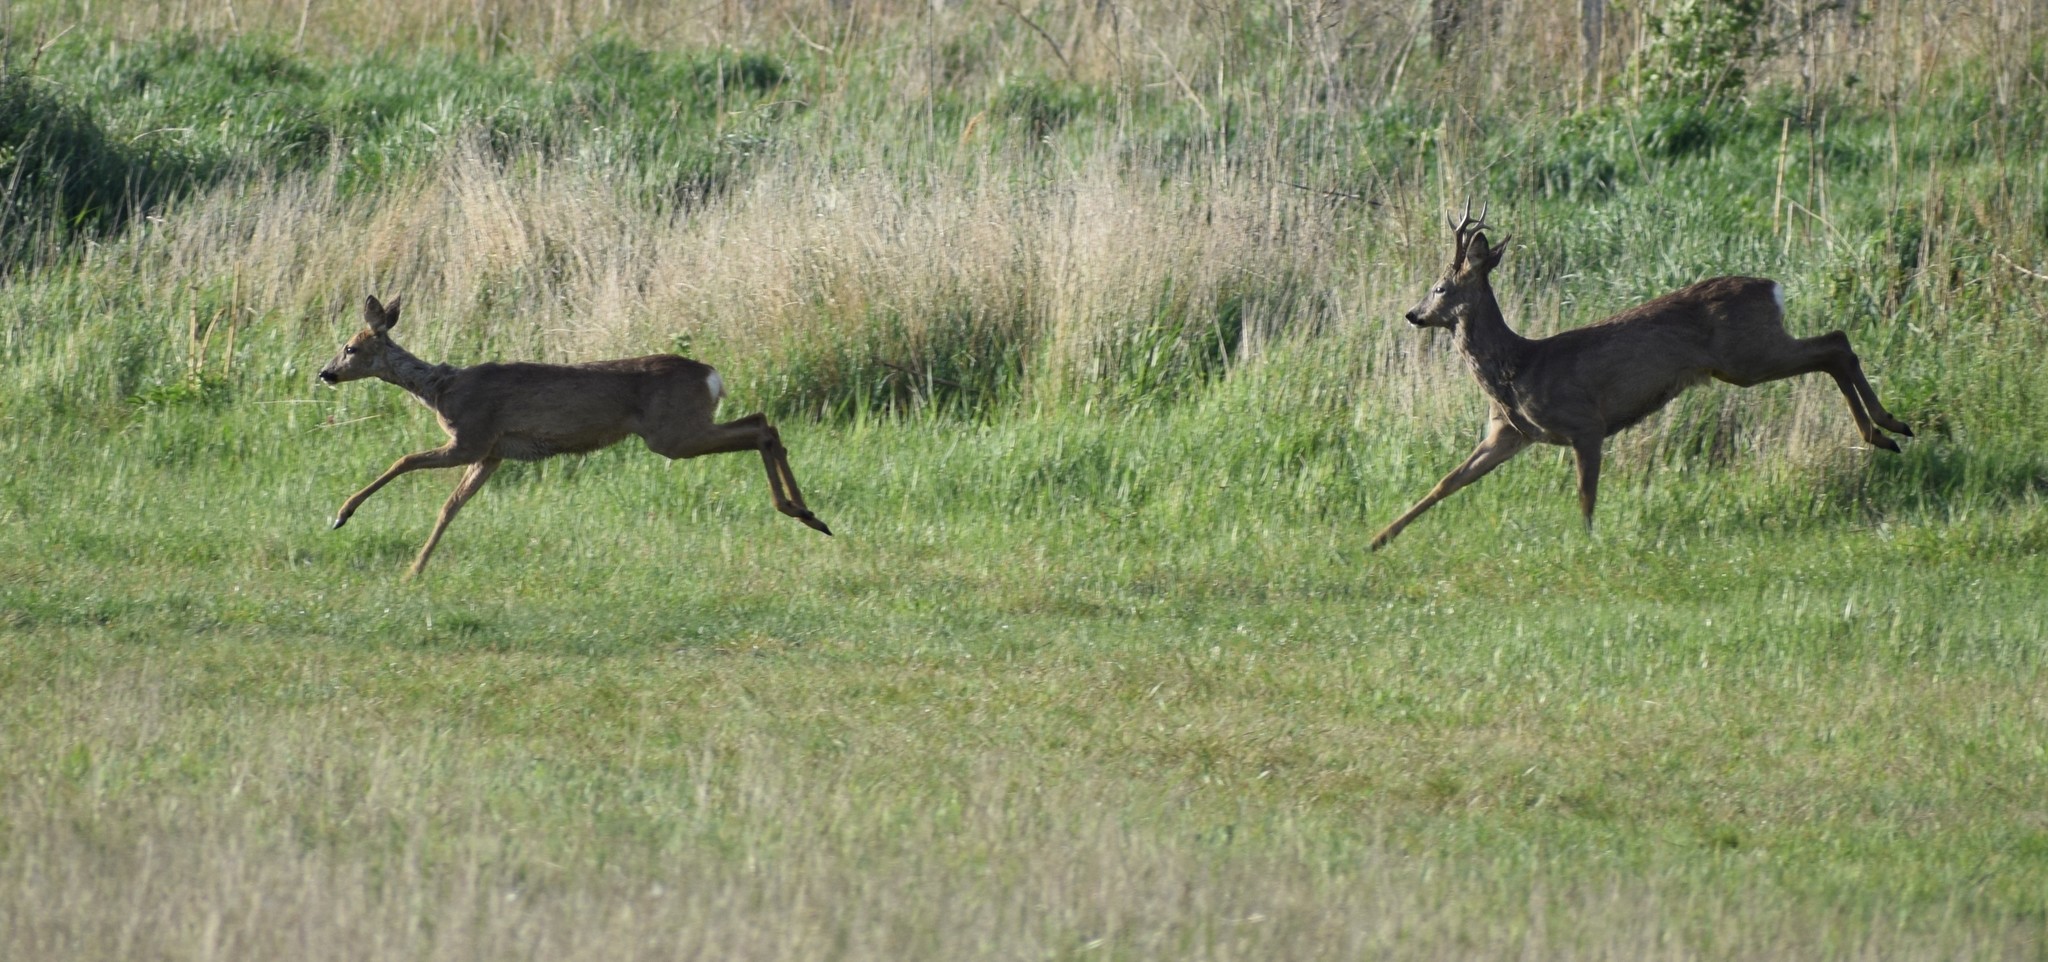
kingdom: Animalia
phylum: Chordata
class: Mammalia
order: Artiodactyla
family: Cervidae
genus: Capreolus
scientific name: Capreolus capreolus
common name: Western roe deer
